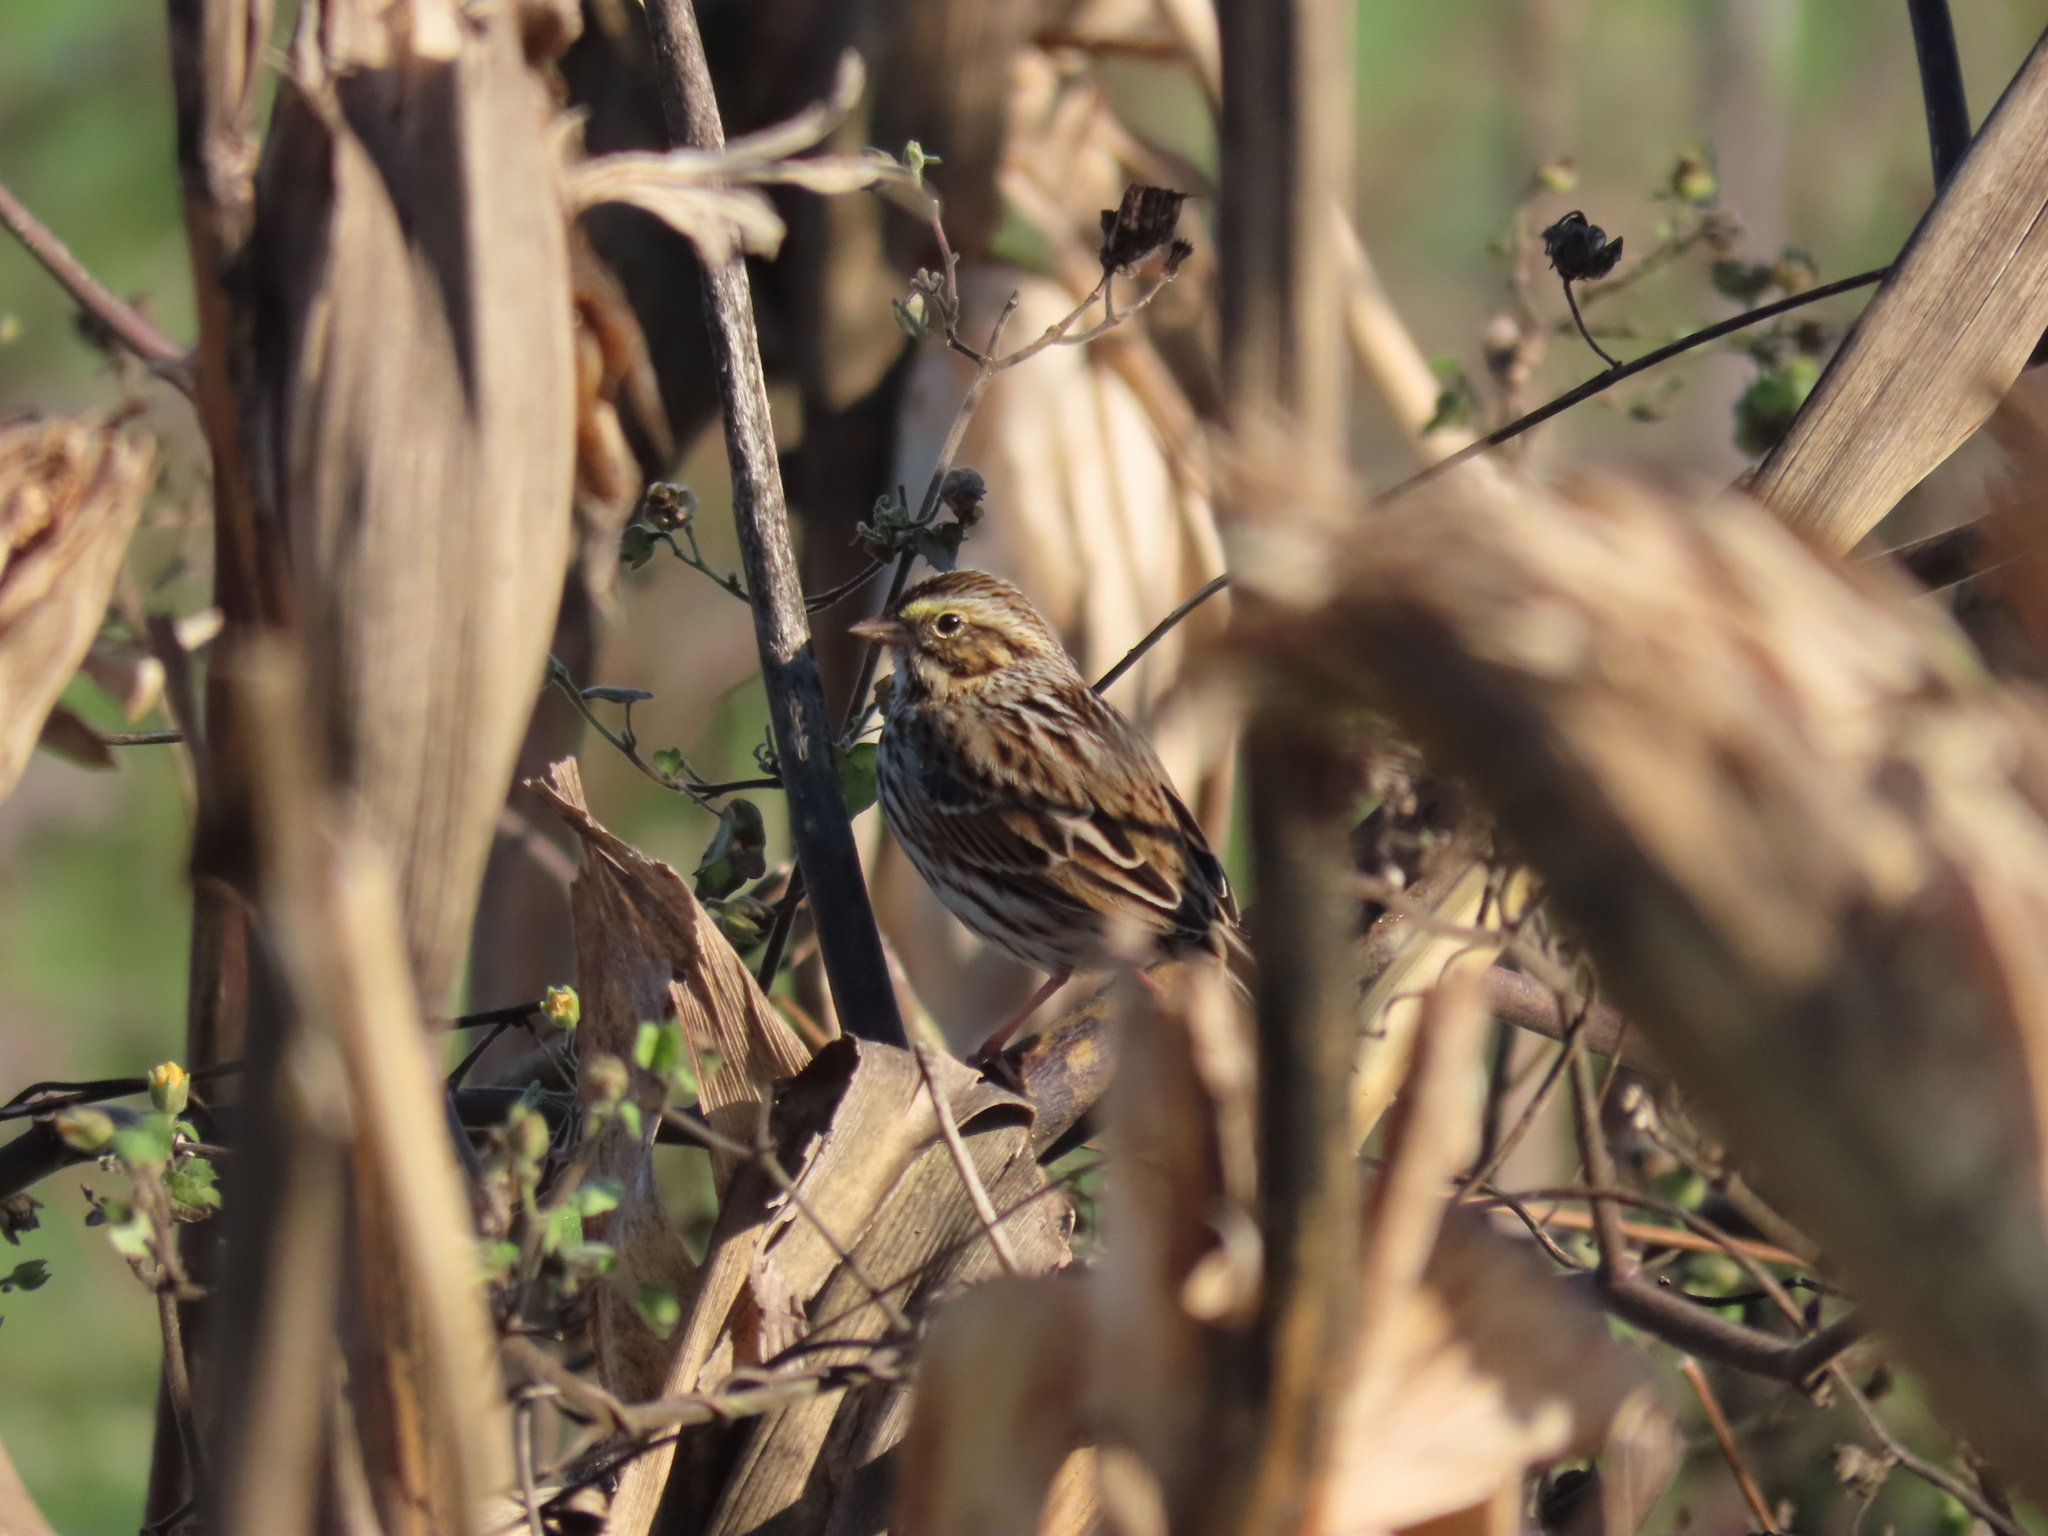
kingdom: Animalia
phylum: Chordata
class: Aves
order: Passeriformes
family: Passerellidae
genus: Passerculus
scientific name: Passerculus sandwichensis
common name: Savannah sparrow
